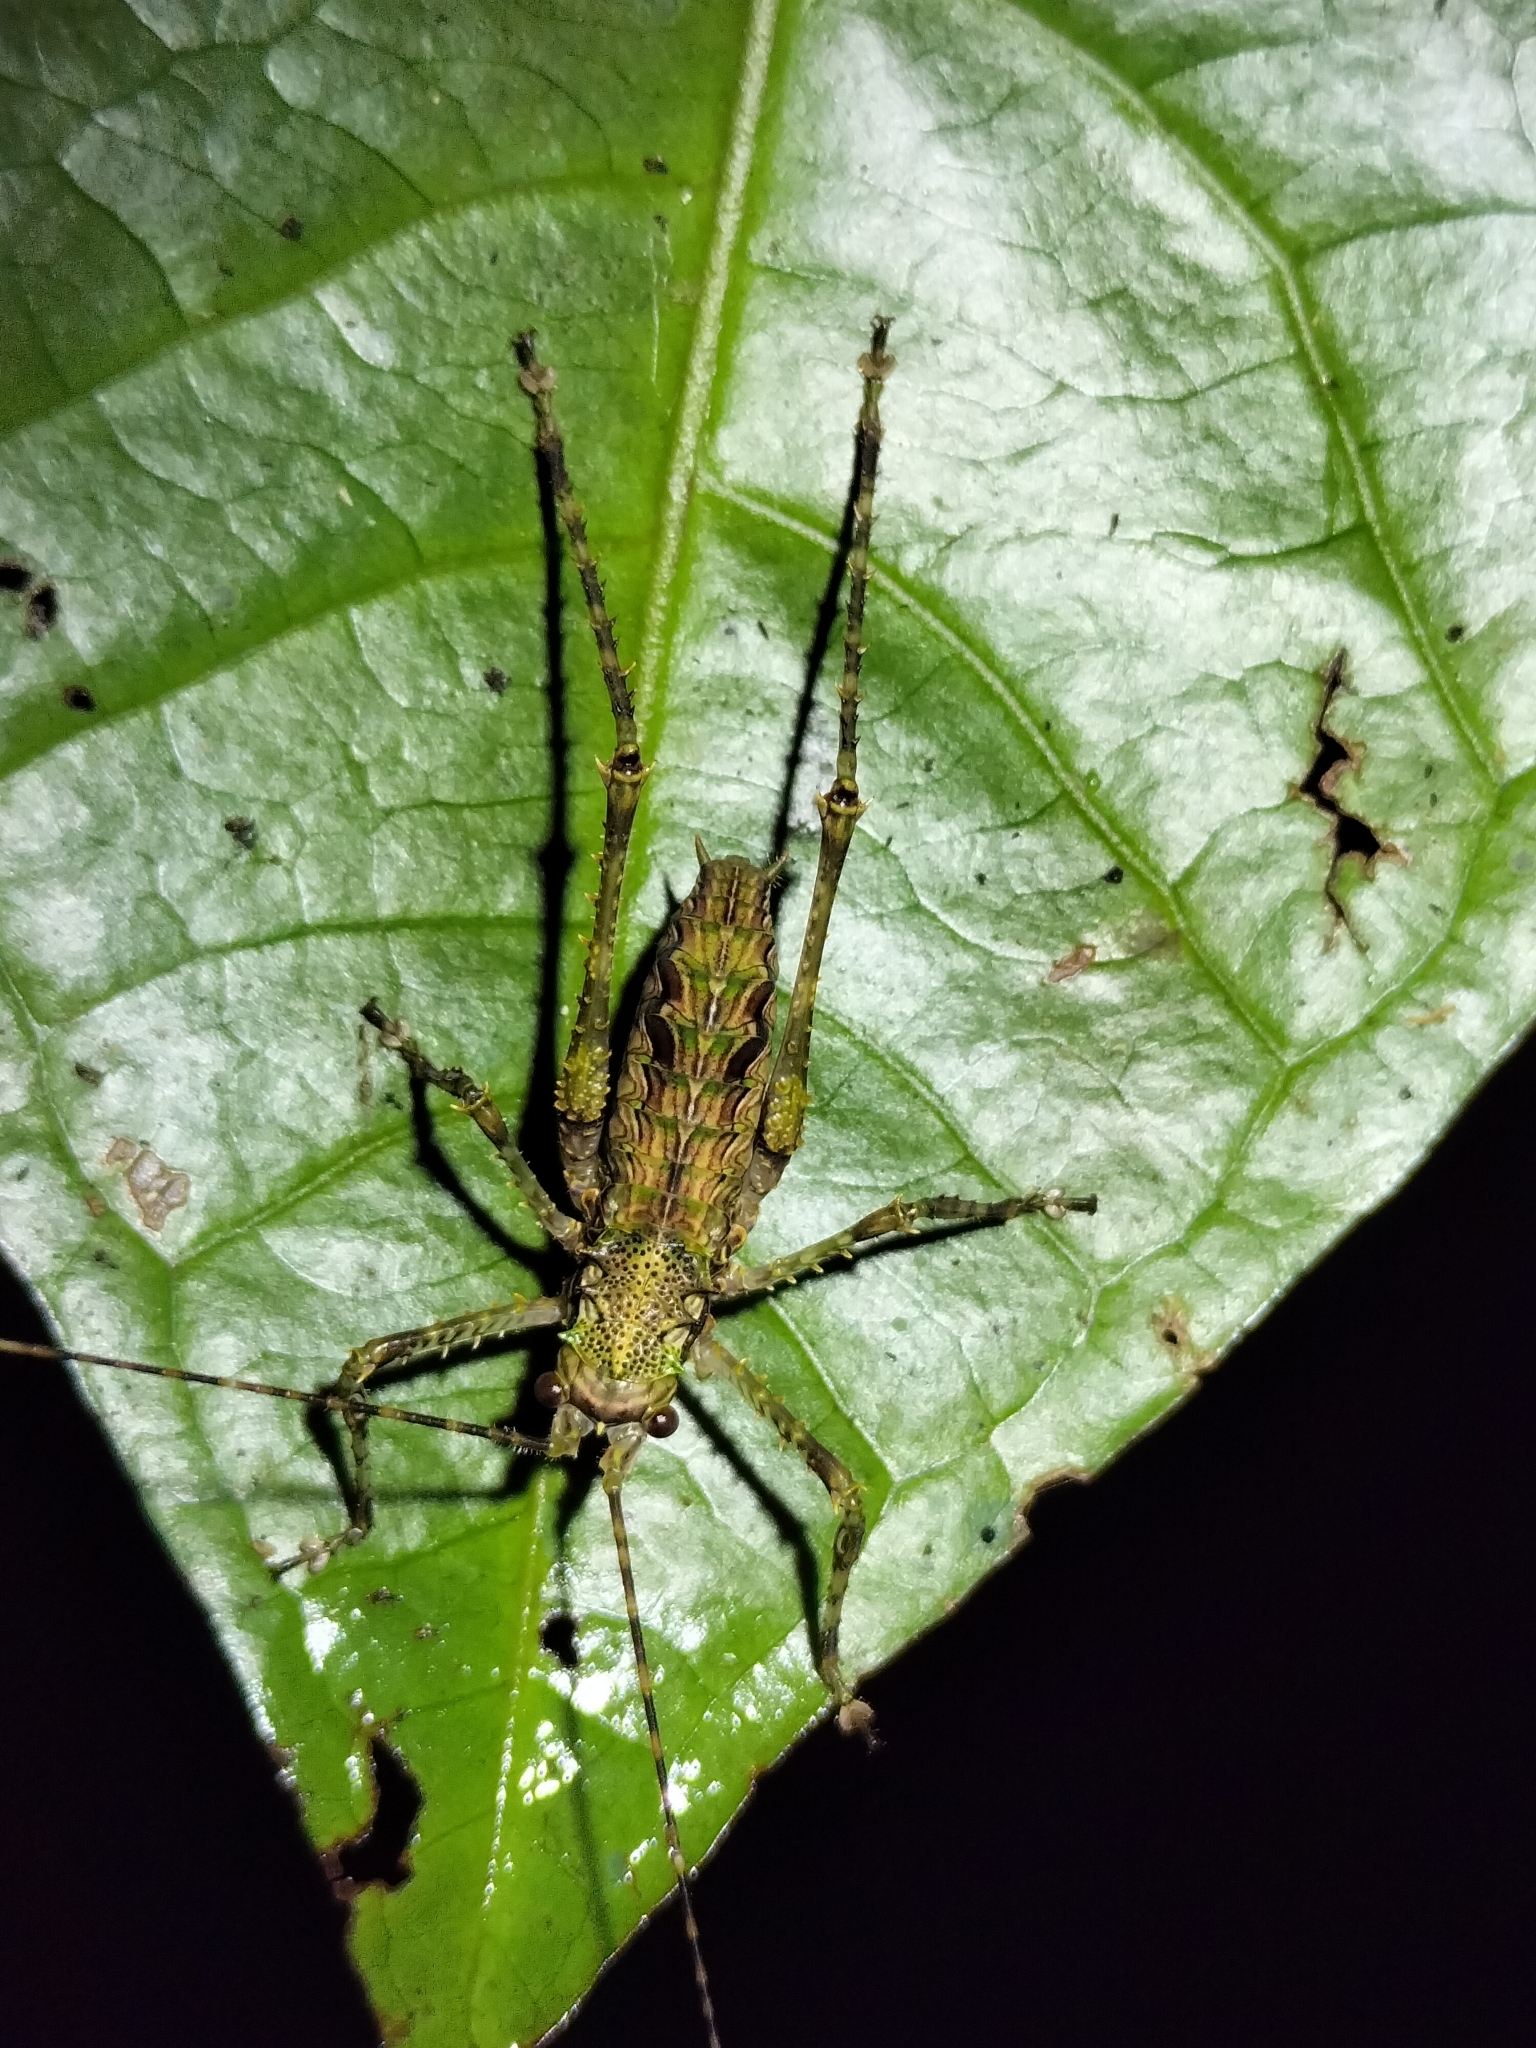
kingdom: Animalia
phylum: Arthropoda
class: Insecta
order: Orthoptera
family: Tettigoniidae
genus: Phricta
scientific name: Phricta spinosa
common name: Giant spiny forest katydid
